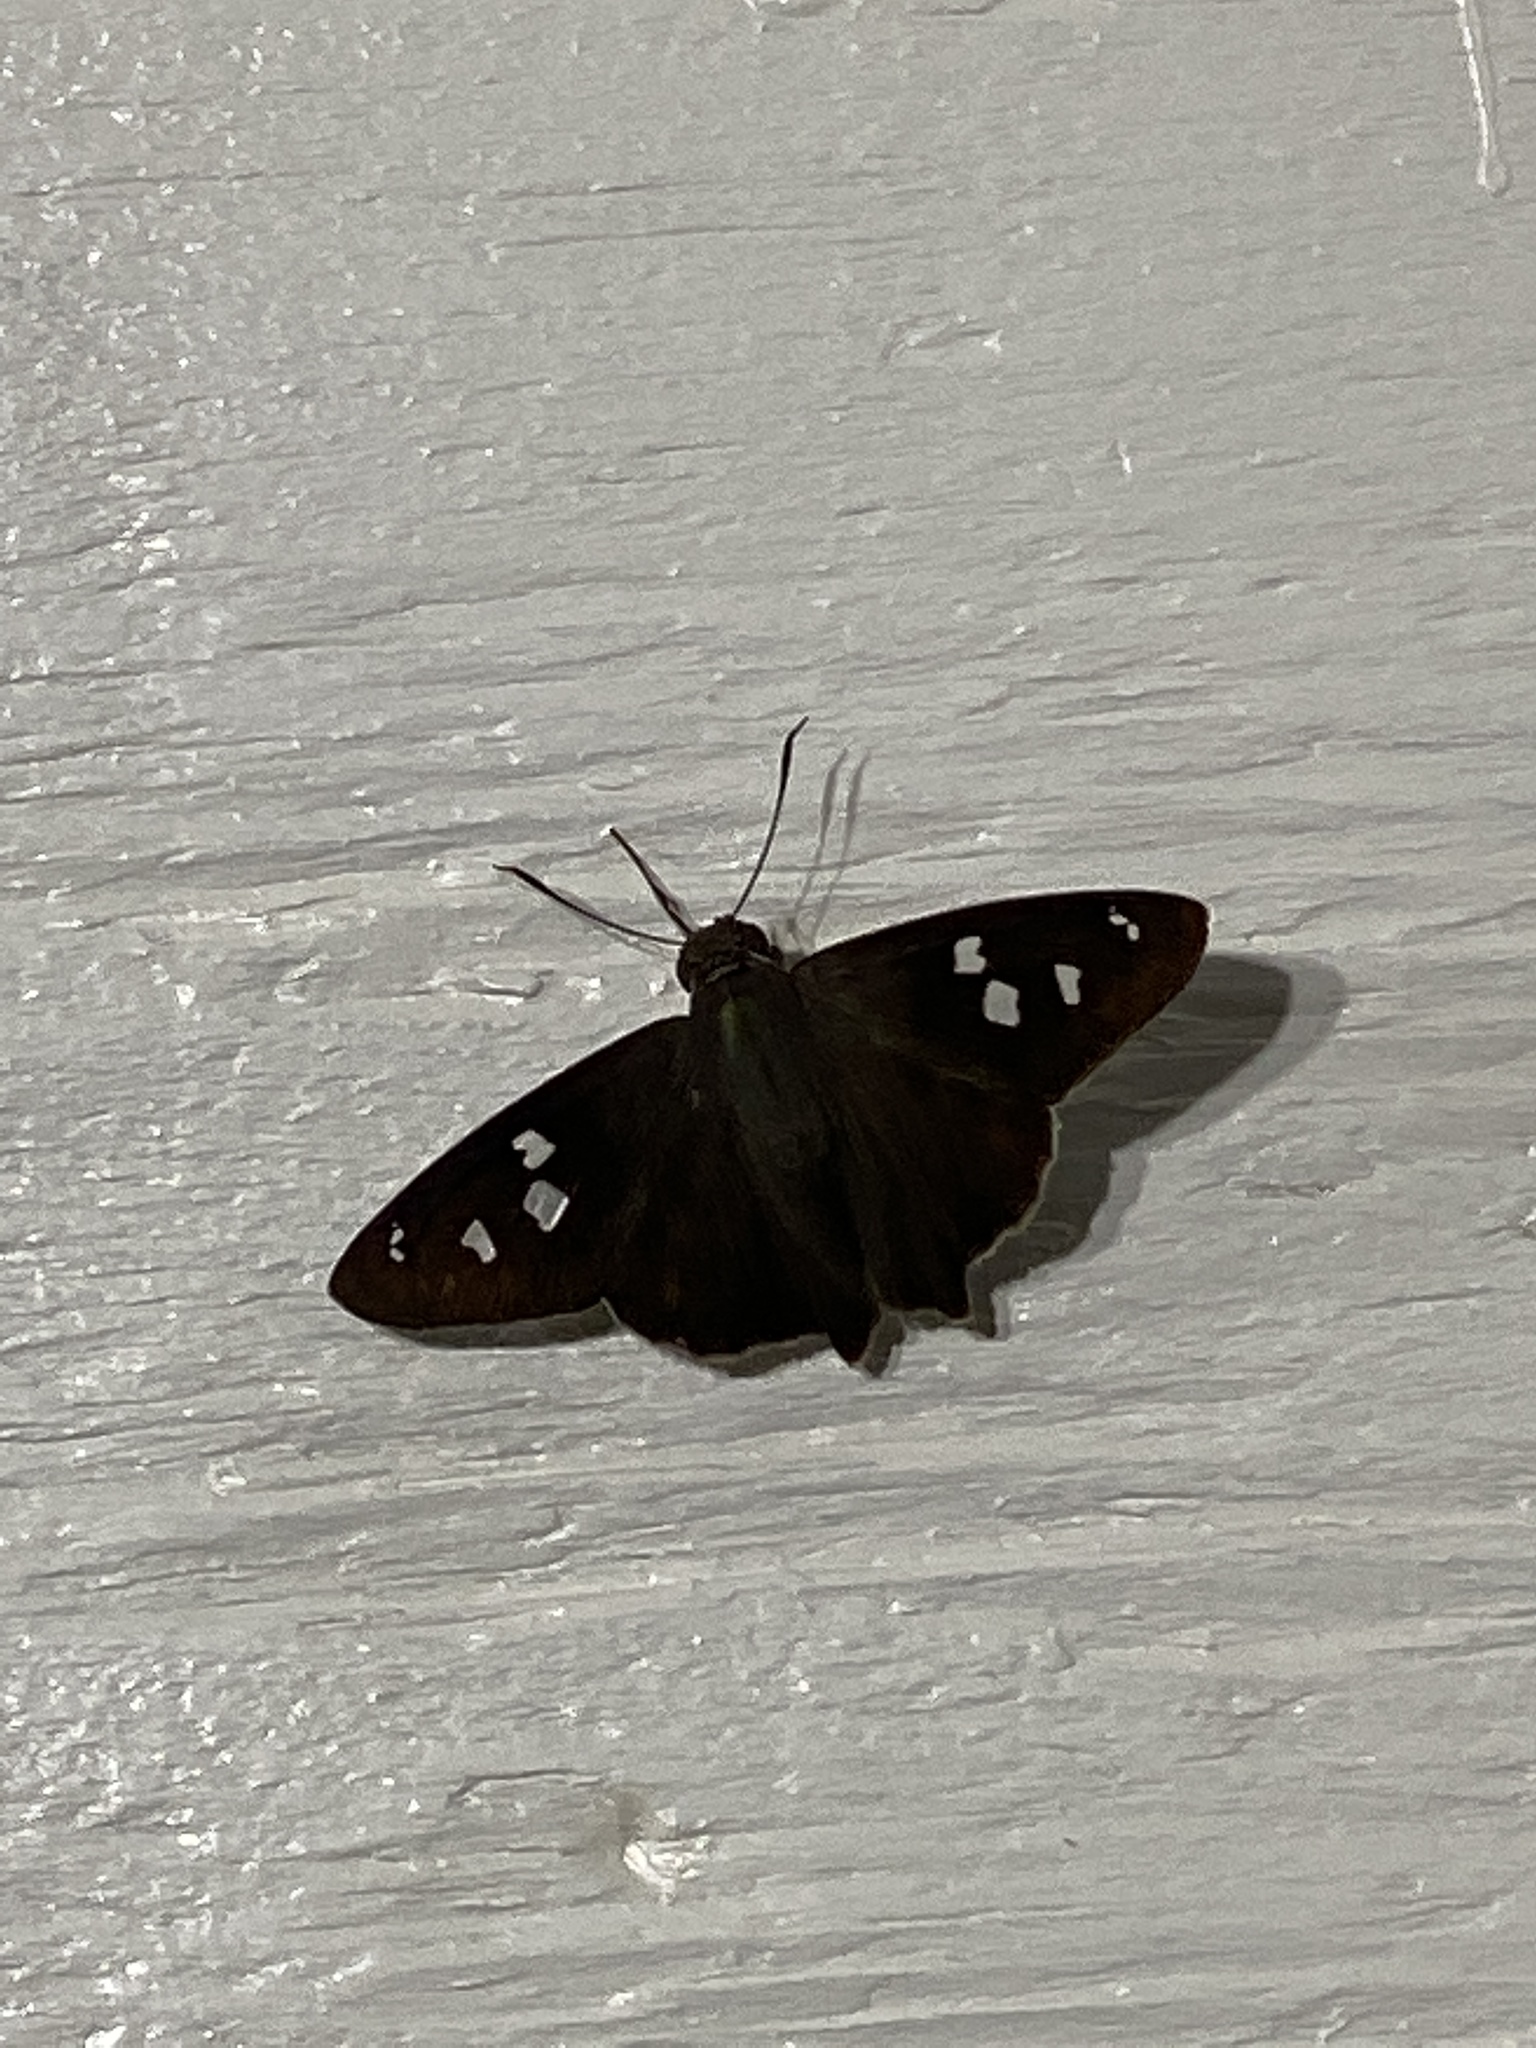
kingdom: Animalia
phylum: Arthropoda
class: Insecta
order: Lepidoptera
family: Hesperiidae
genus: Polygonus
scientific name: Polygonus leo
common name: Hammoch skipper
